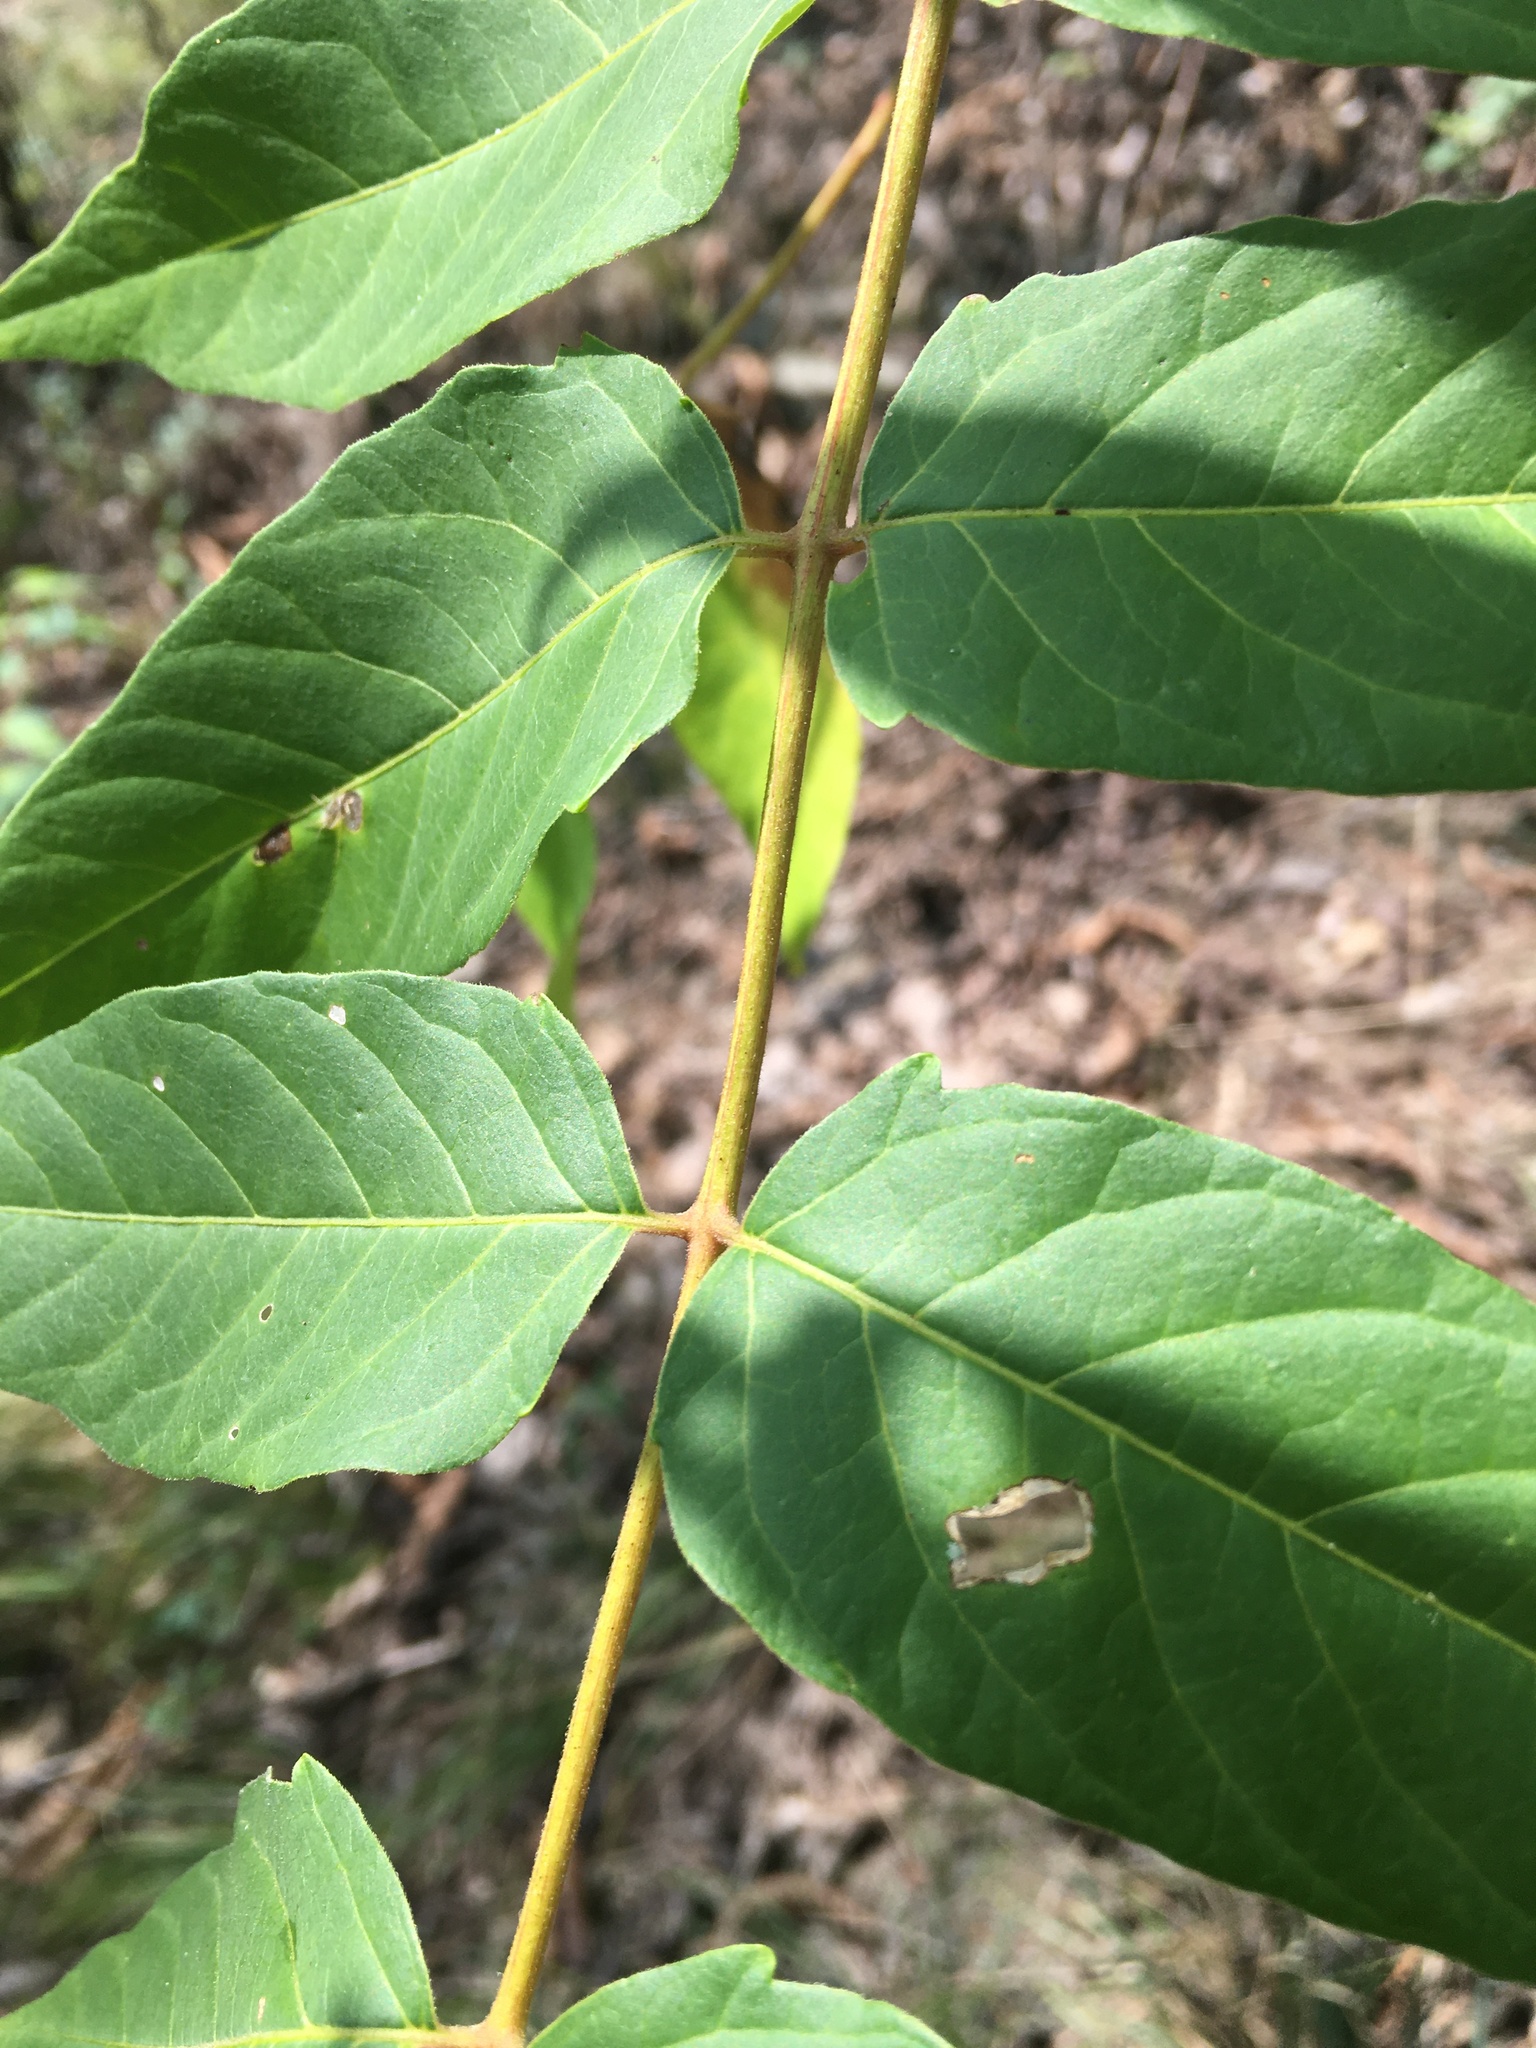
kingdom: Plantae
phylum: Tracheophyta
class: Magnoliopsida
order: Sapindales
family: Simaroubaceae
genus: Ailanthus
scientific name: Ailanthus altissima
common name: Tree-of-heaven
